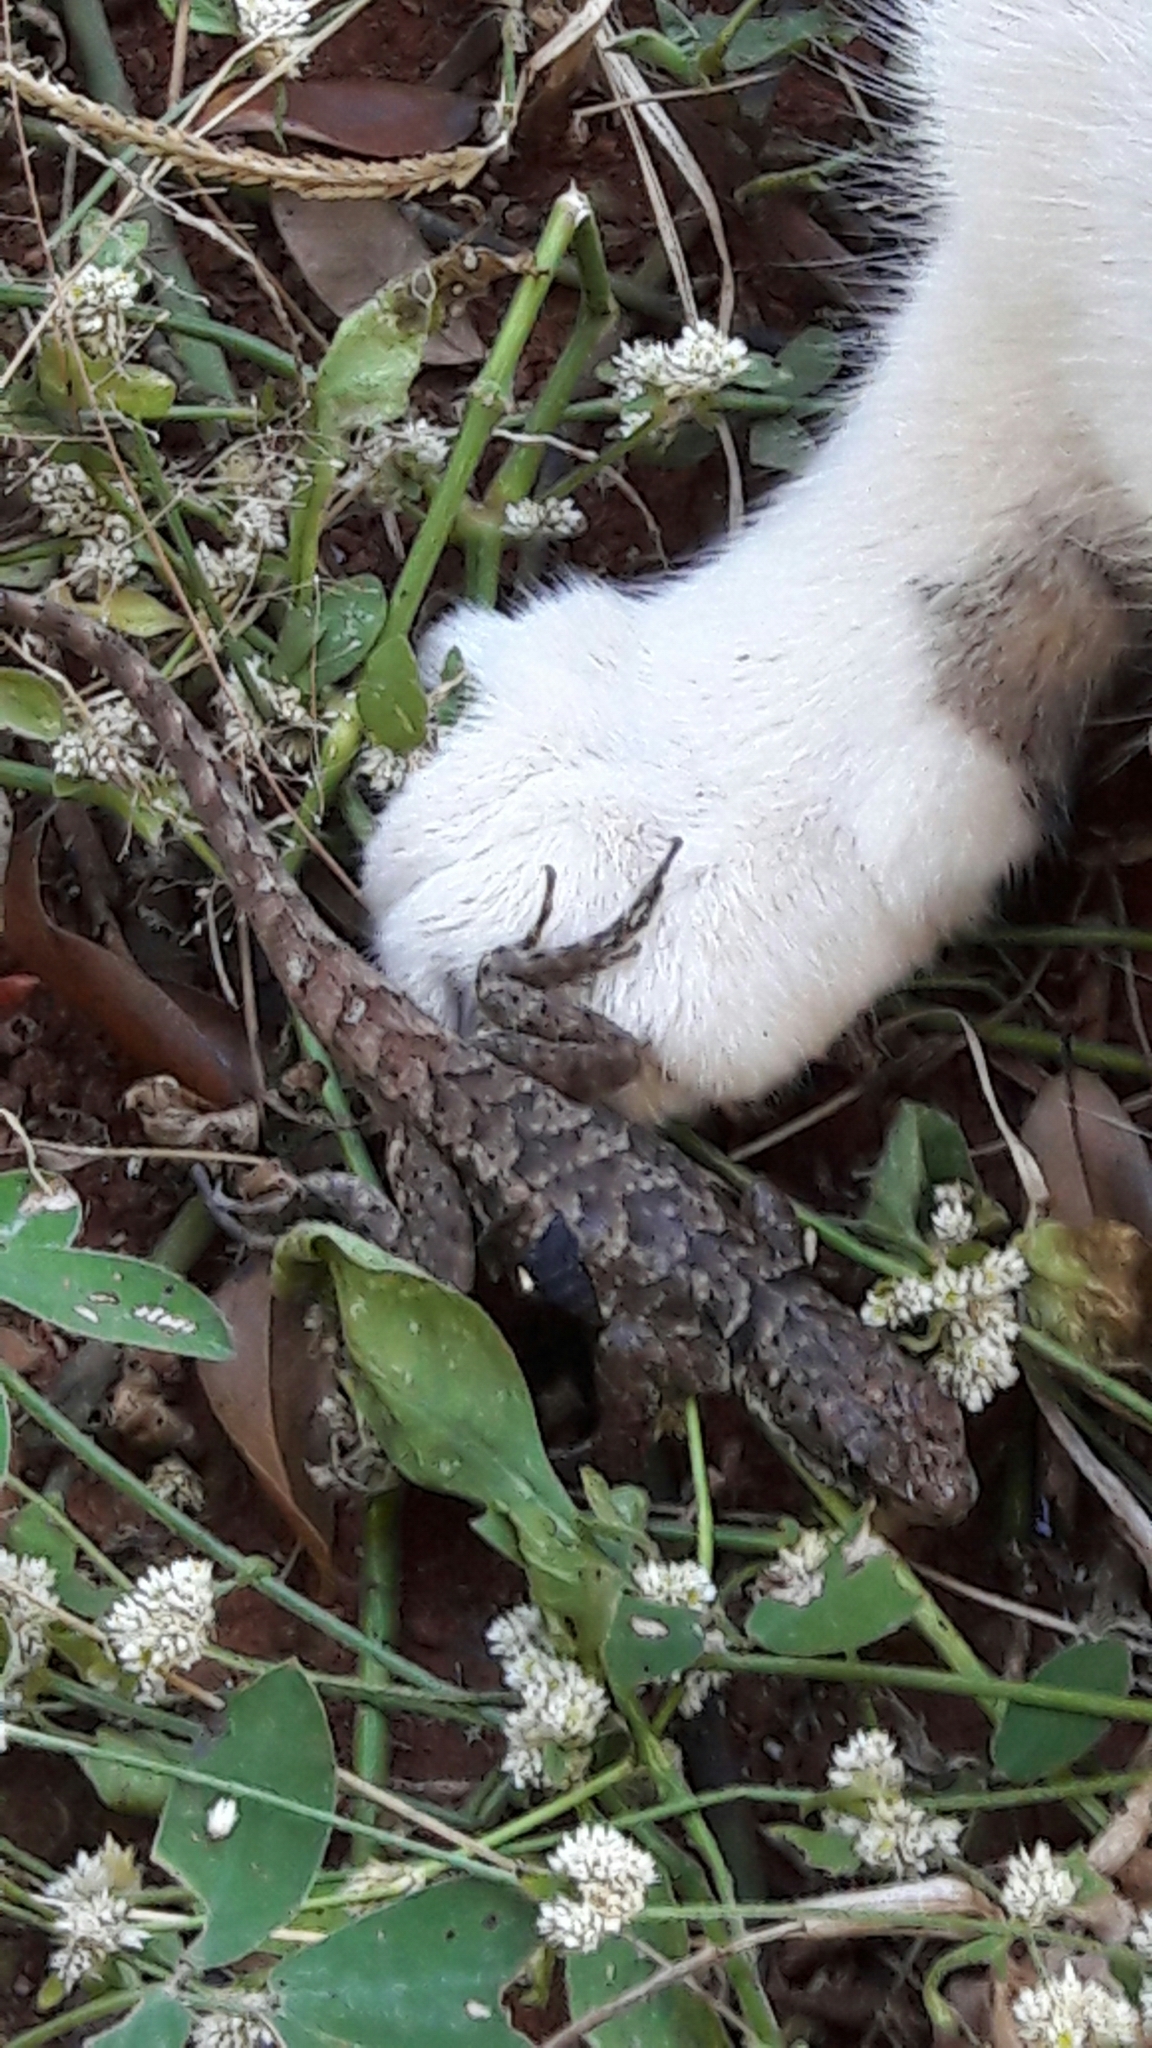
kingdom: Animalia
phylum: Chordata
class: Squamata
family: Tropiduridae
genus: Tropidurus
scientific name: Tropidurus torquatus
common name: Amazon lava lizard
